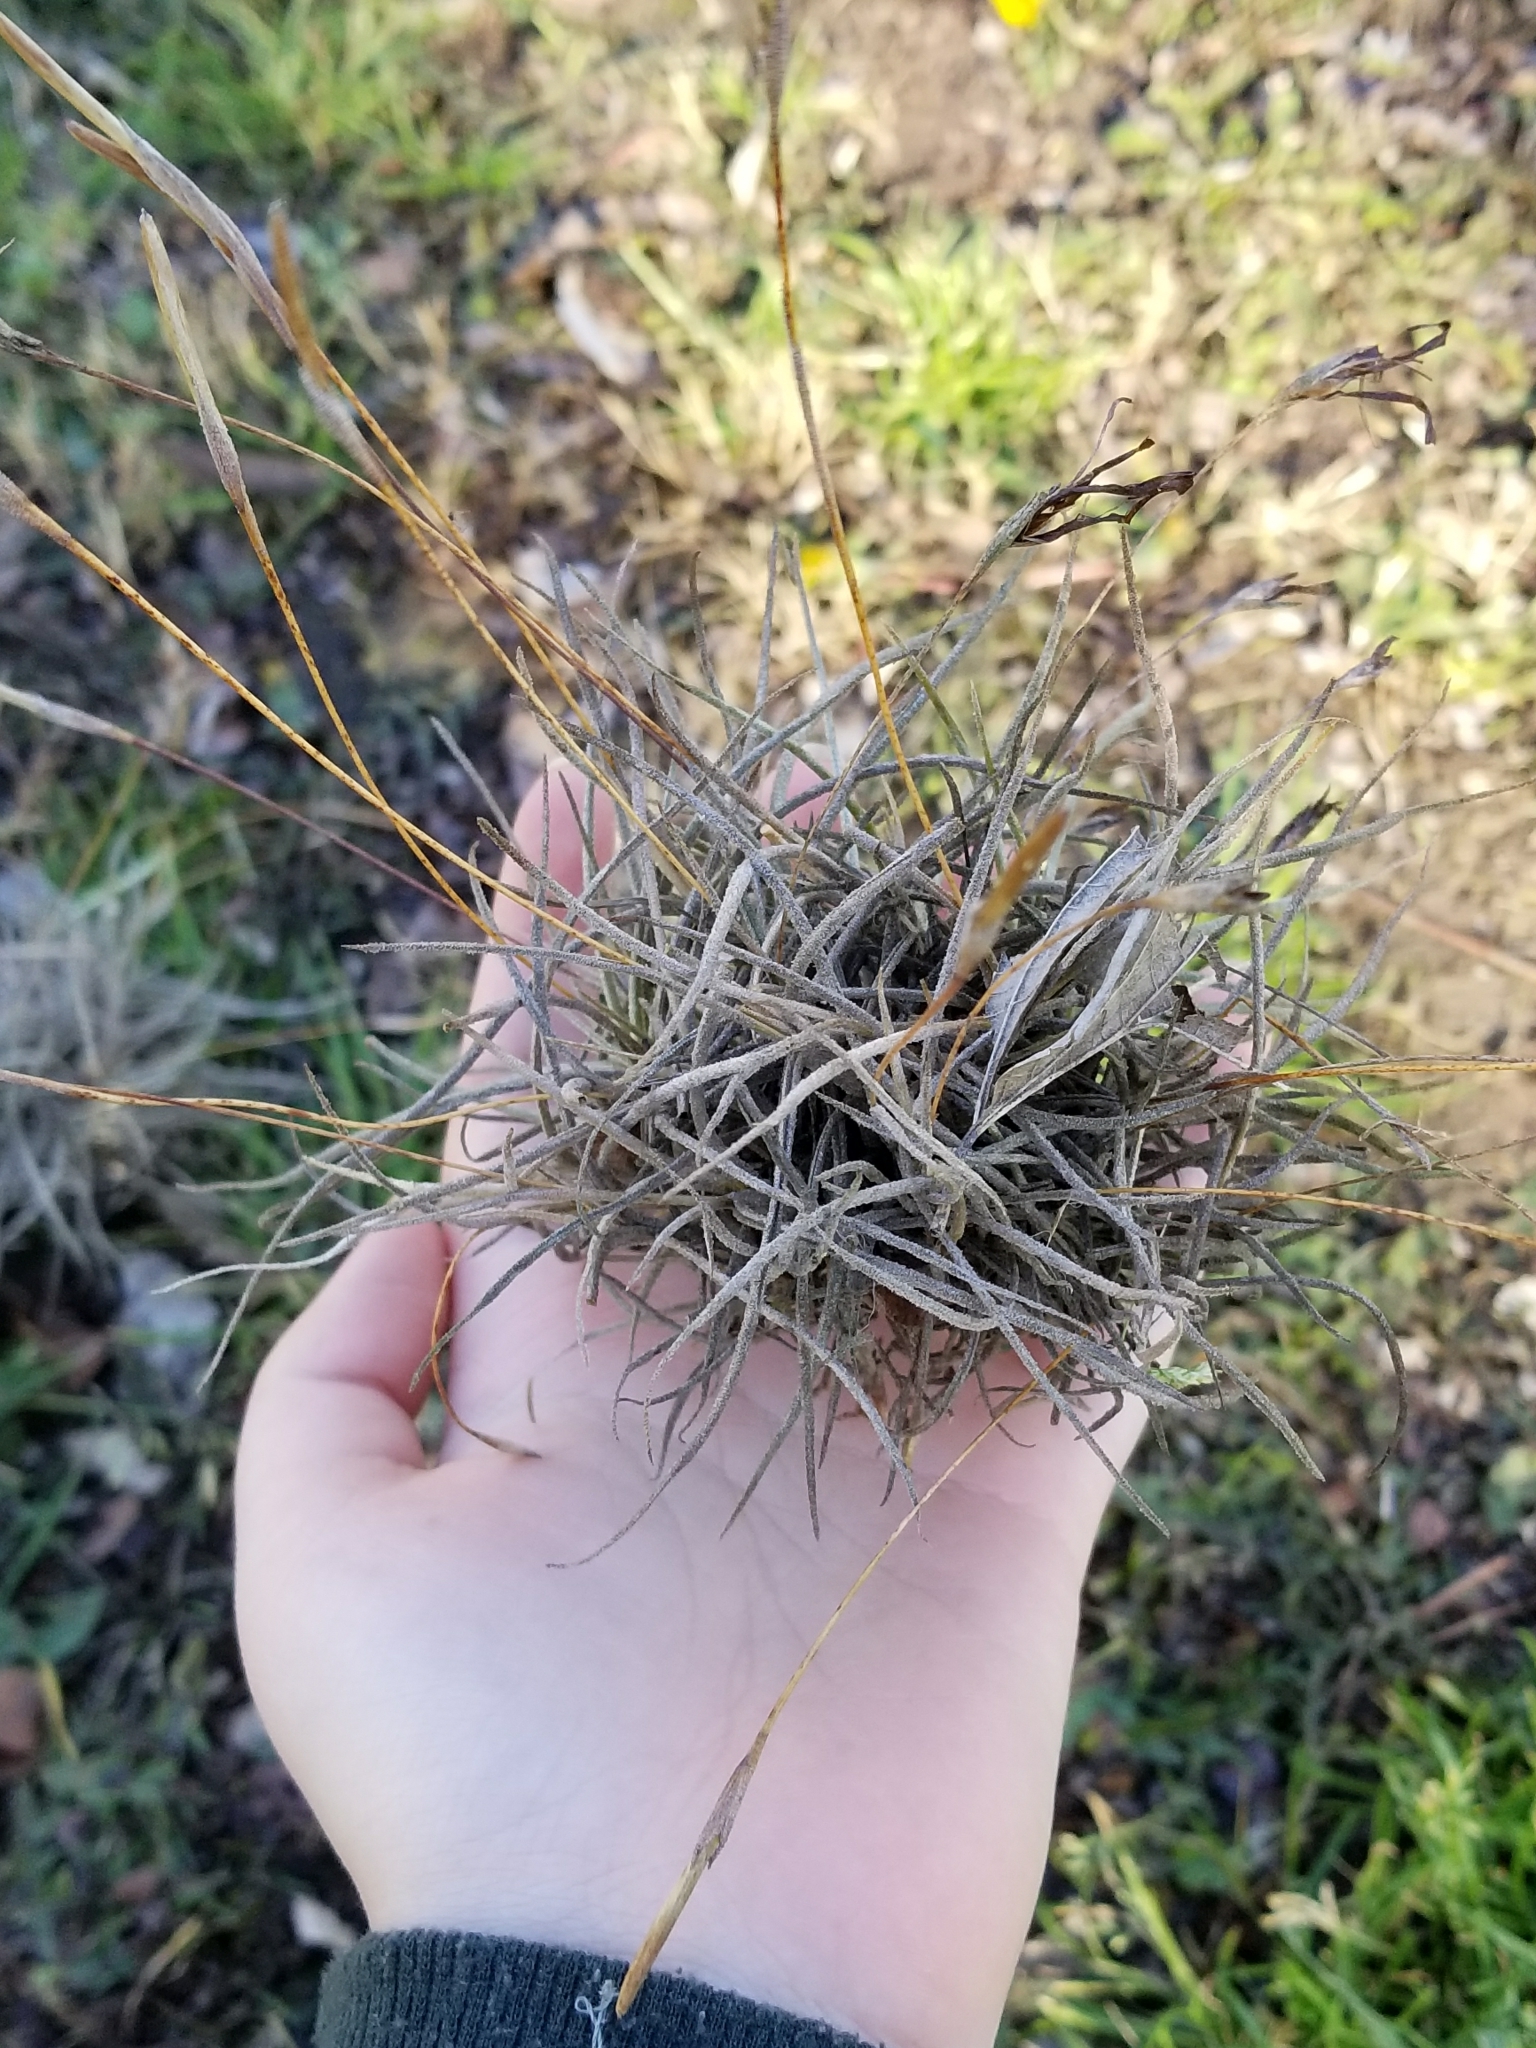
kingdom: Plantae
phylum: Tracheophyta
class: Liliopsida
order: Poales
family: Bromeliaceae
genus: Tillandsia
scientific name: Tillandsia recurvata
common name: Small ballmoss
